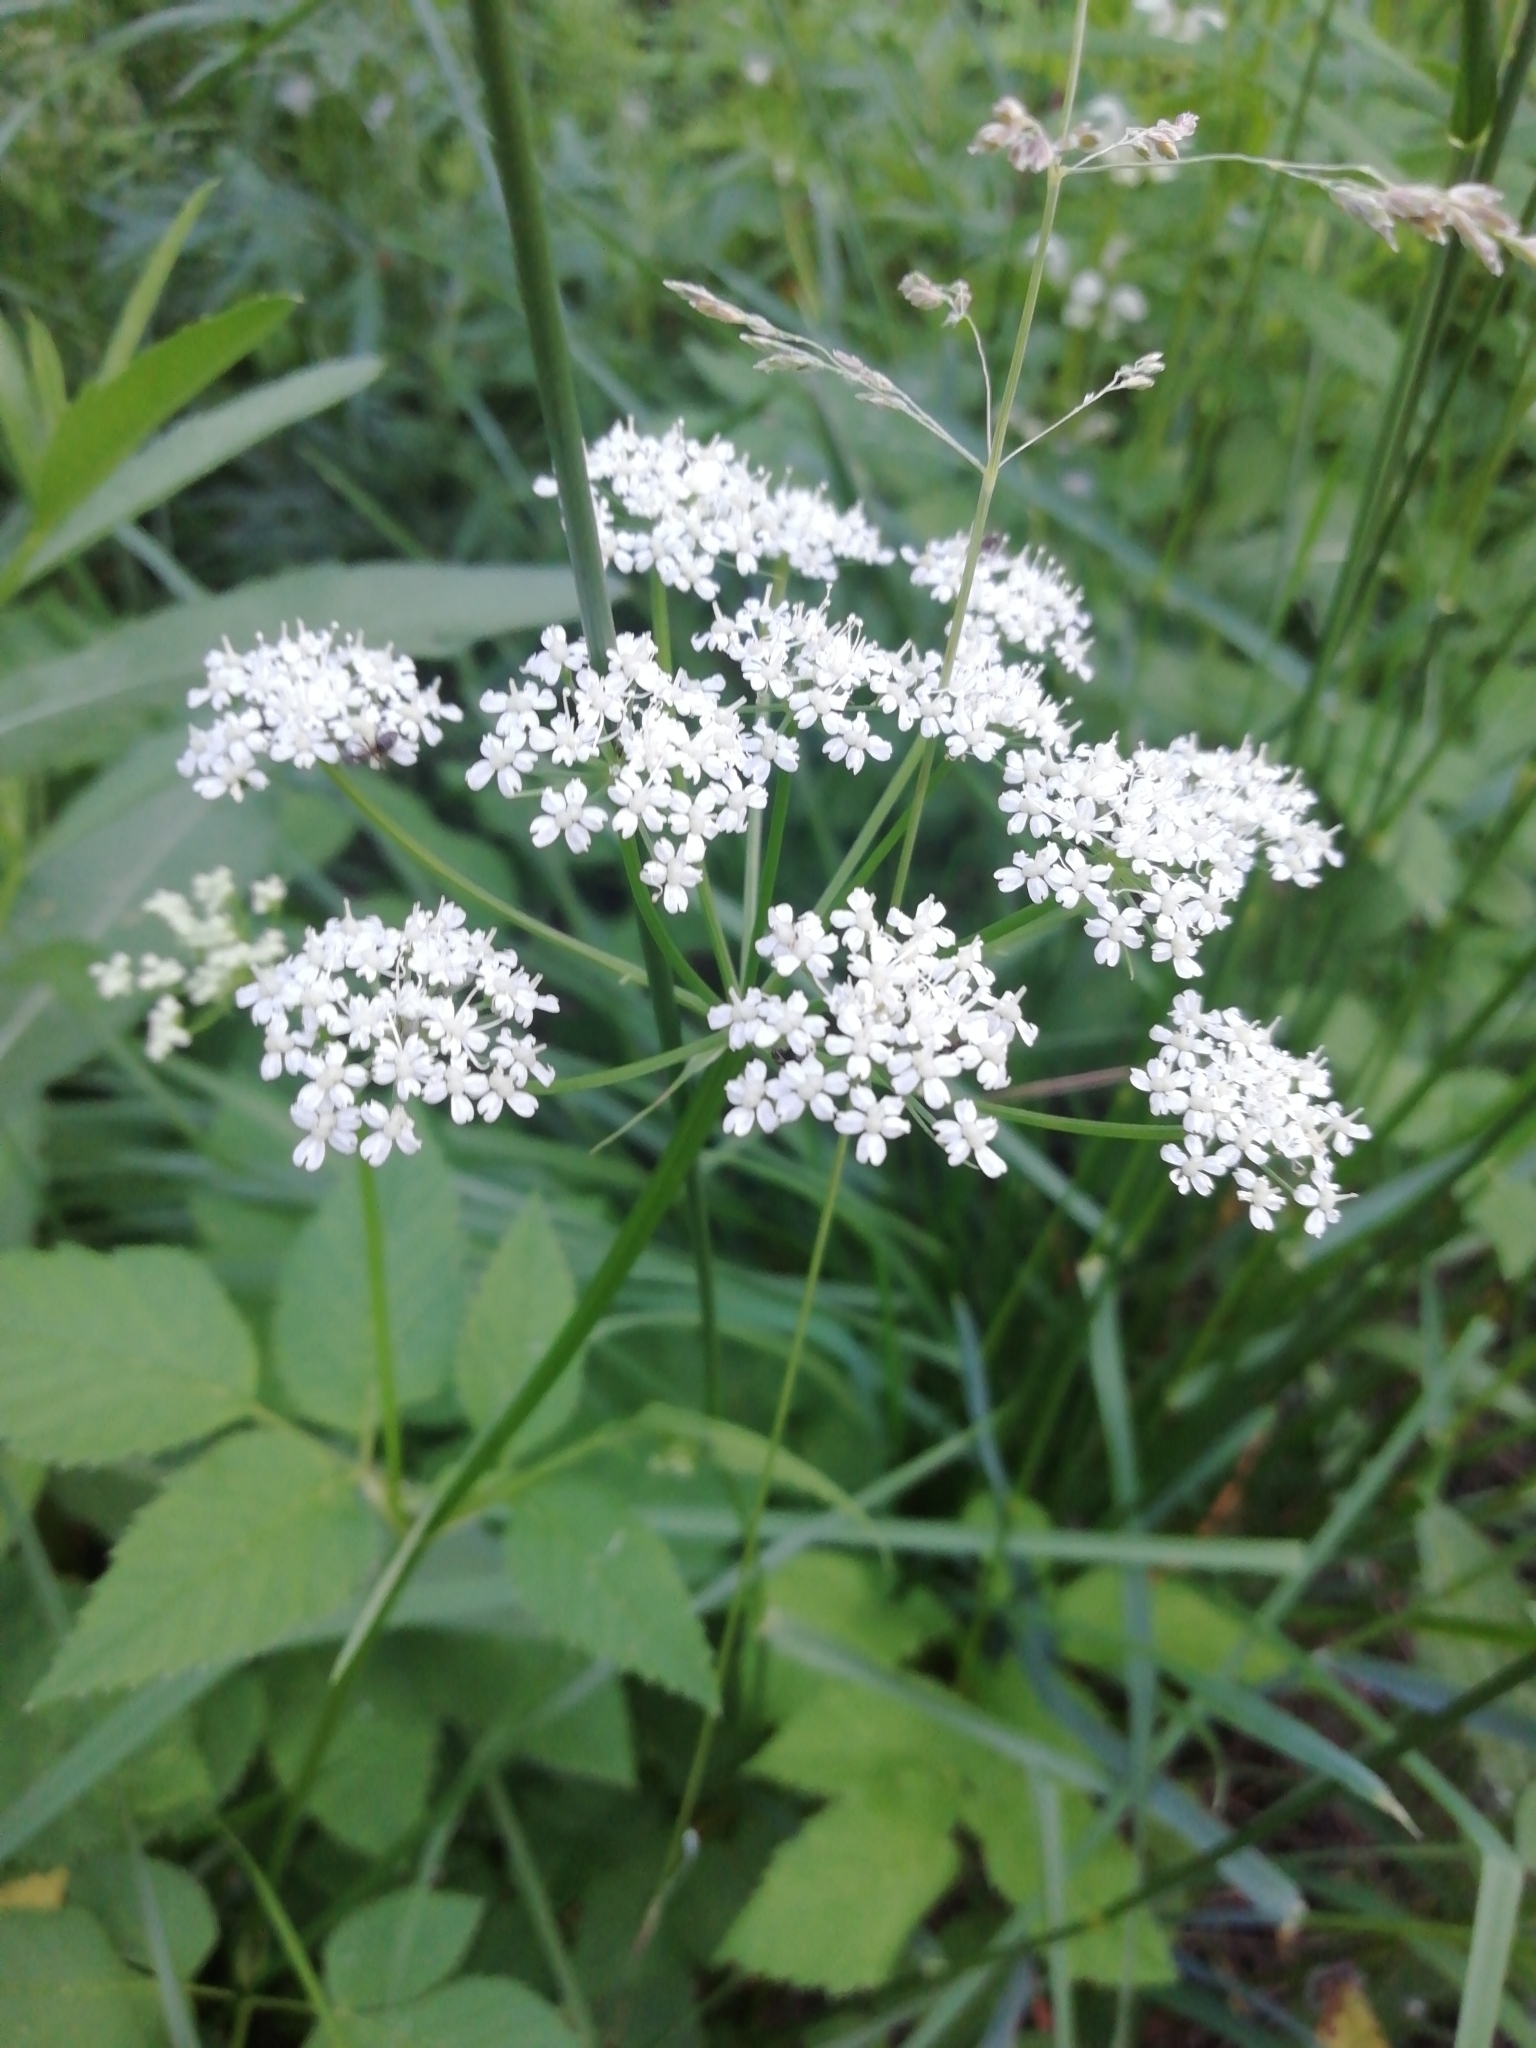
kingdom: Plantae
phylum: Tracheophyta
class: Magnoliopsida
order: Apiales
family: Apiaceae
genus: Aegopodium
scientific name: Aegopodium podagraria
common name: Ground-elder
